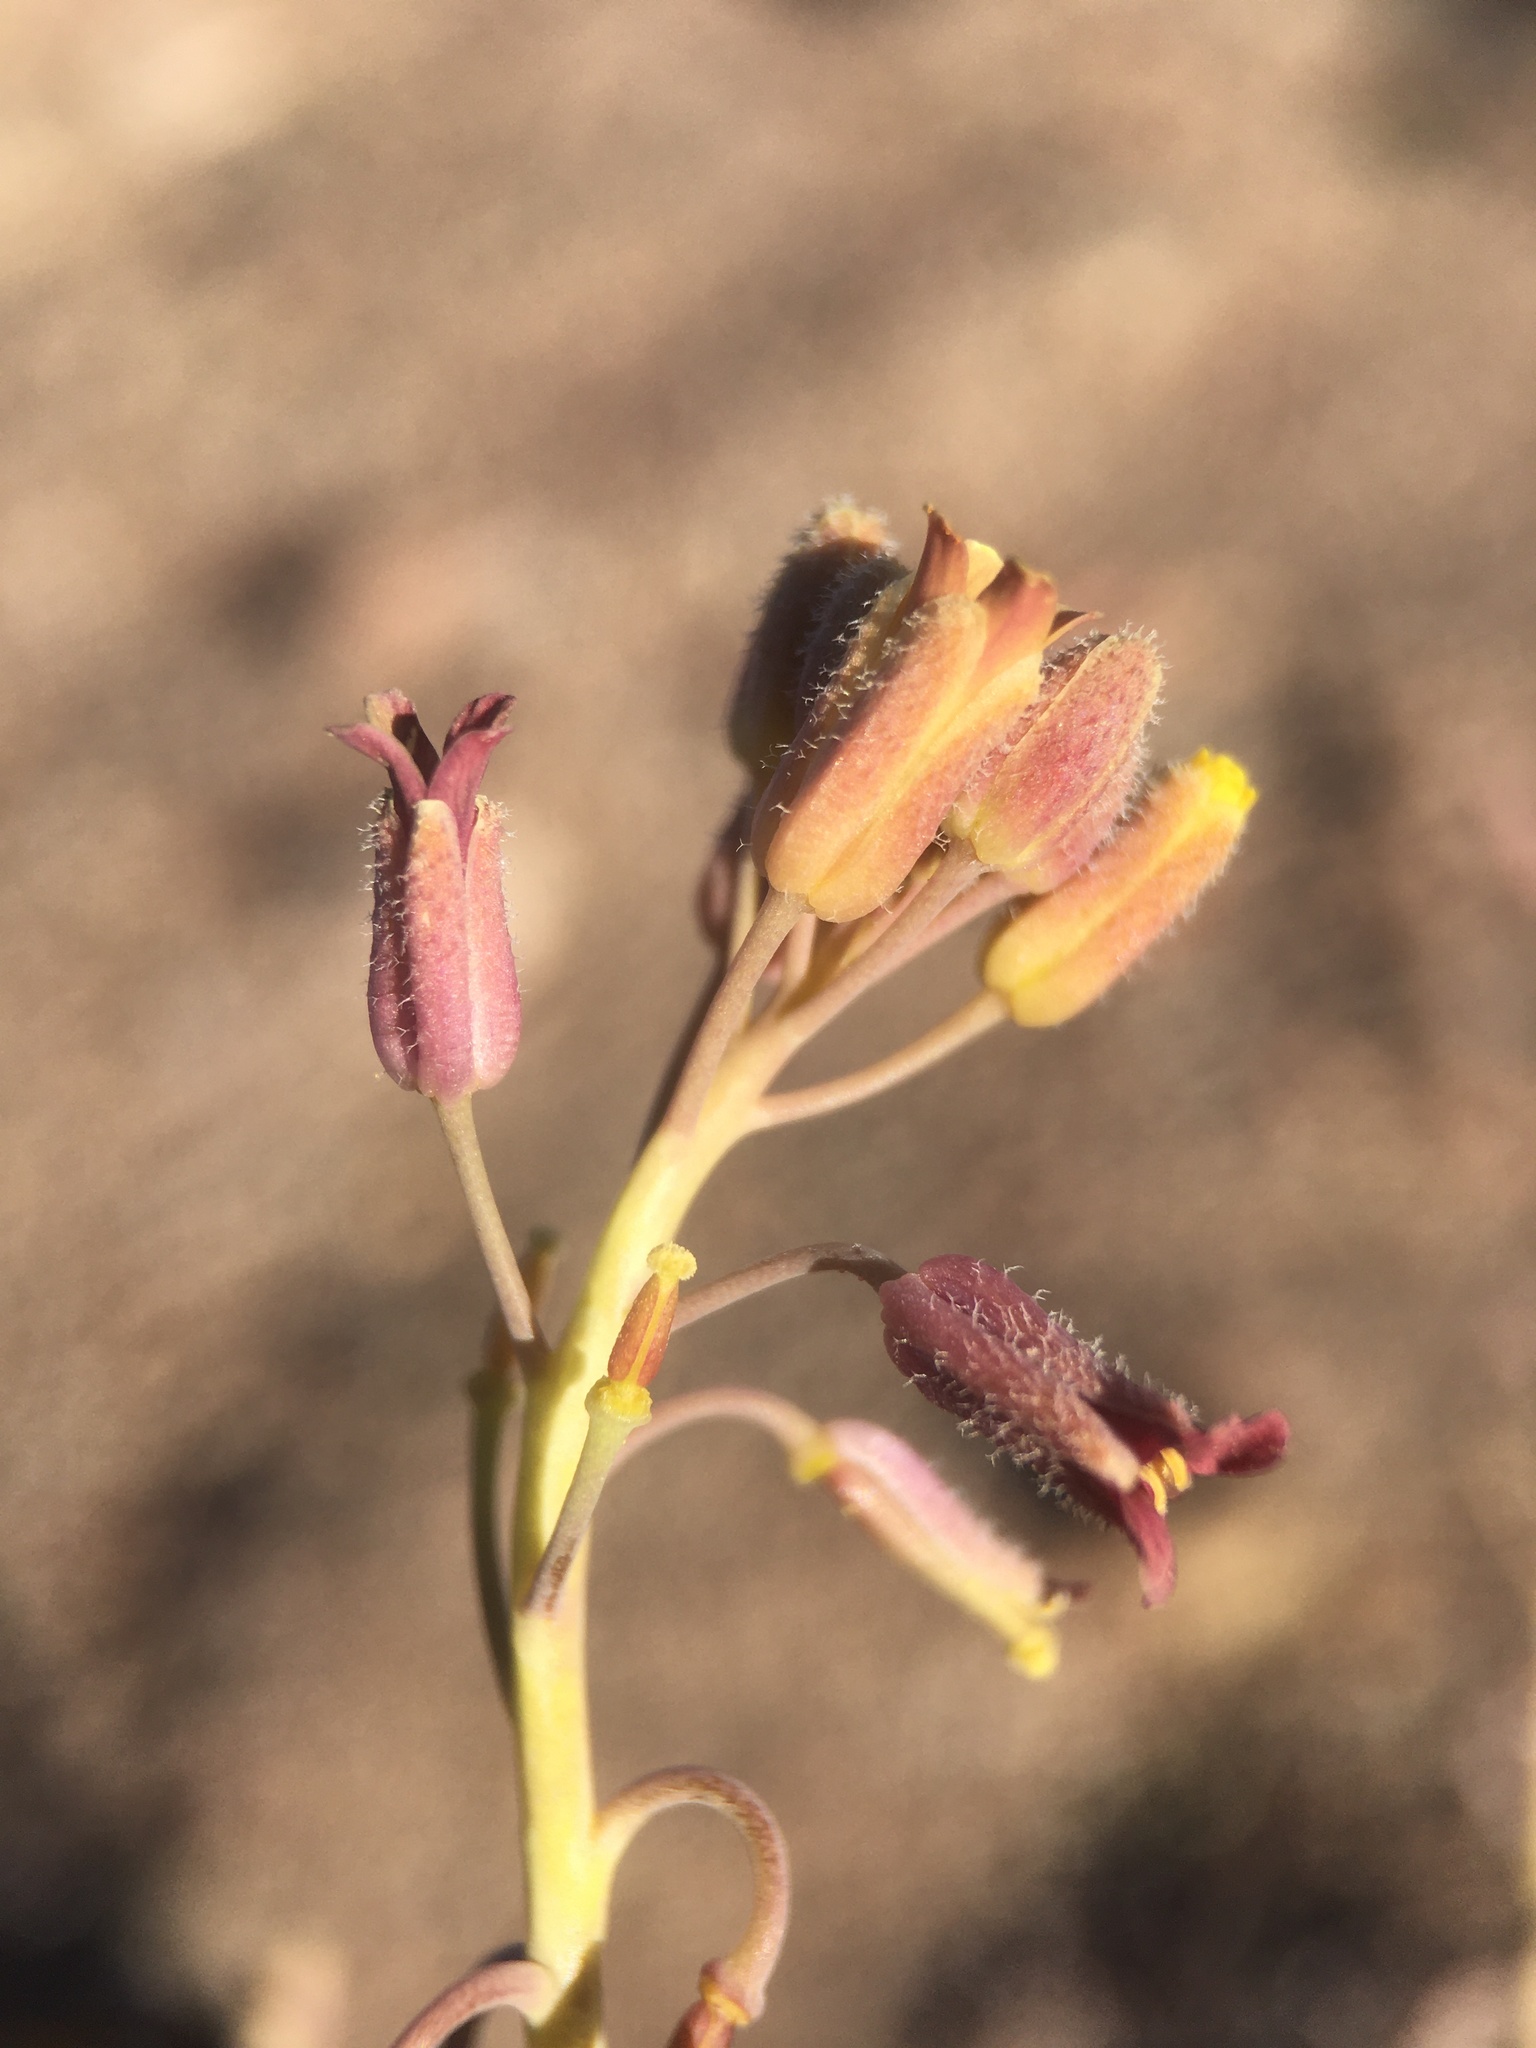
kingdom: Plantae
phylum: Tracheophyta
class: Magnoliopsida
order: Brassicales
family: Brassicaceae
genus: Neuontobotrys
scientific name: Neuontobotrys tarapacana
